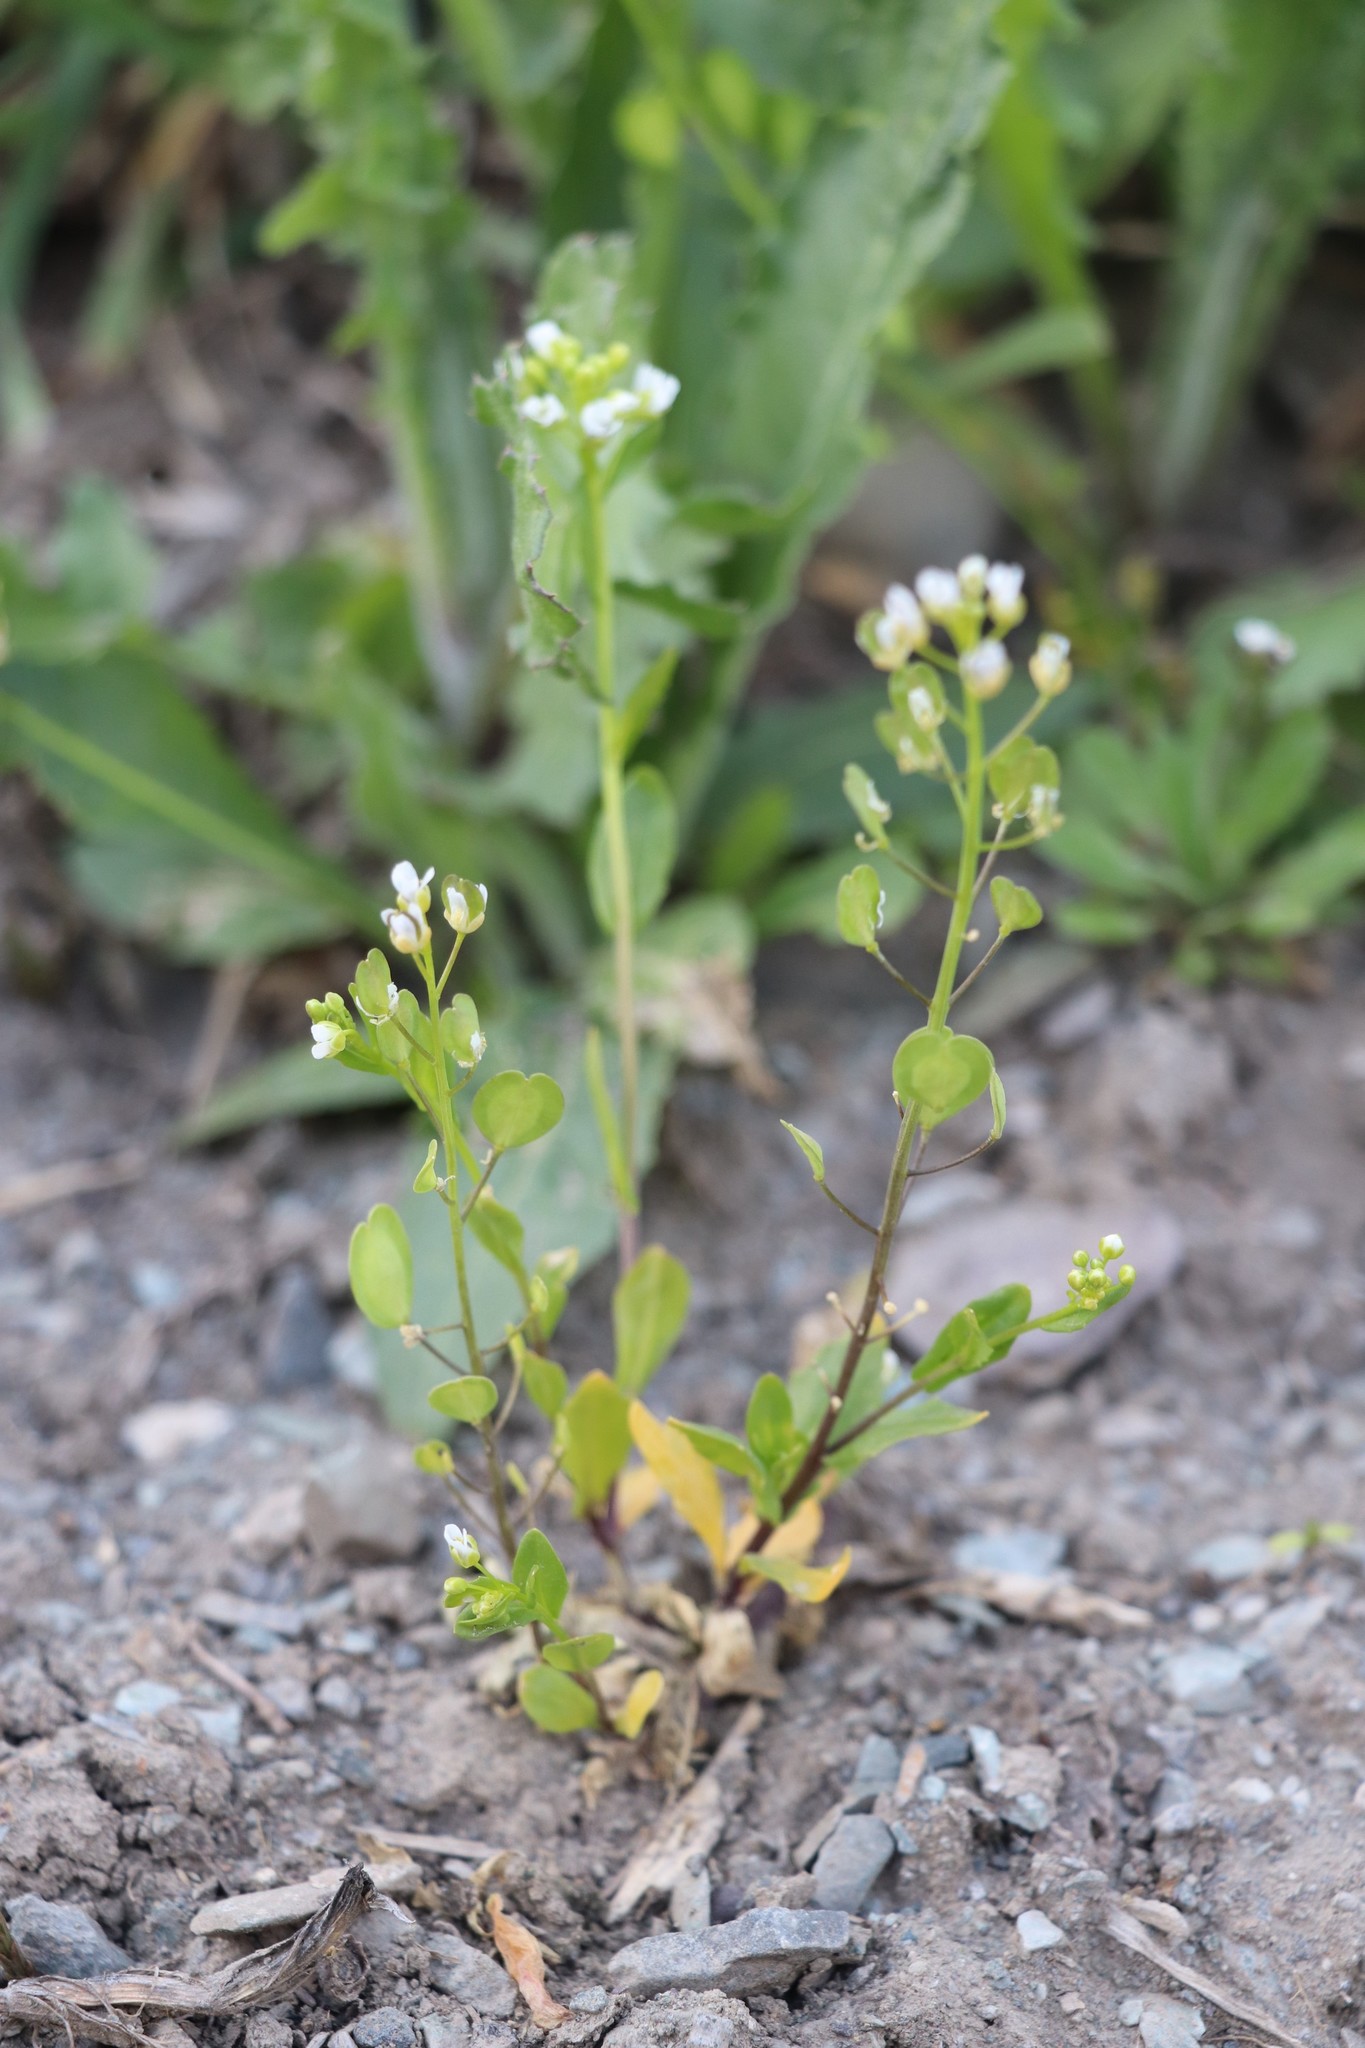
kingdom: Plantae
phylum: Tracheophyta
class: Magnoliopsida
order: Brassicales
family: Brassicaceae
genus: Thlaspi
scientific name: Thlaspi arvense
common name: Field pennycress
